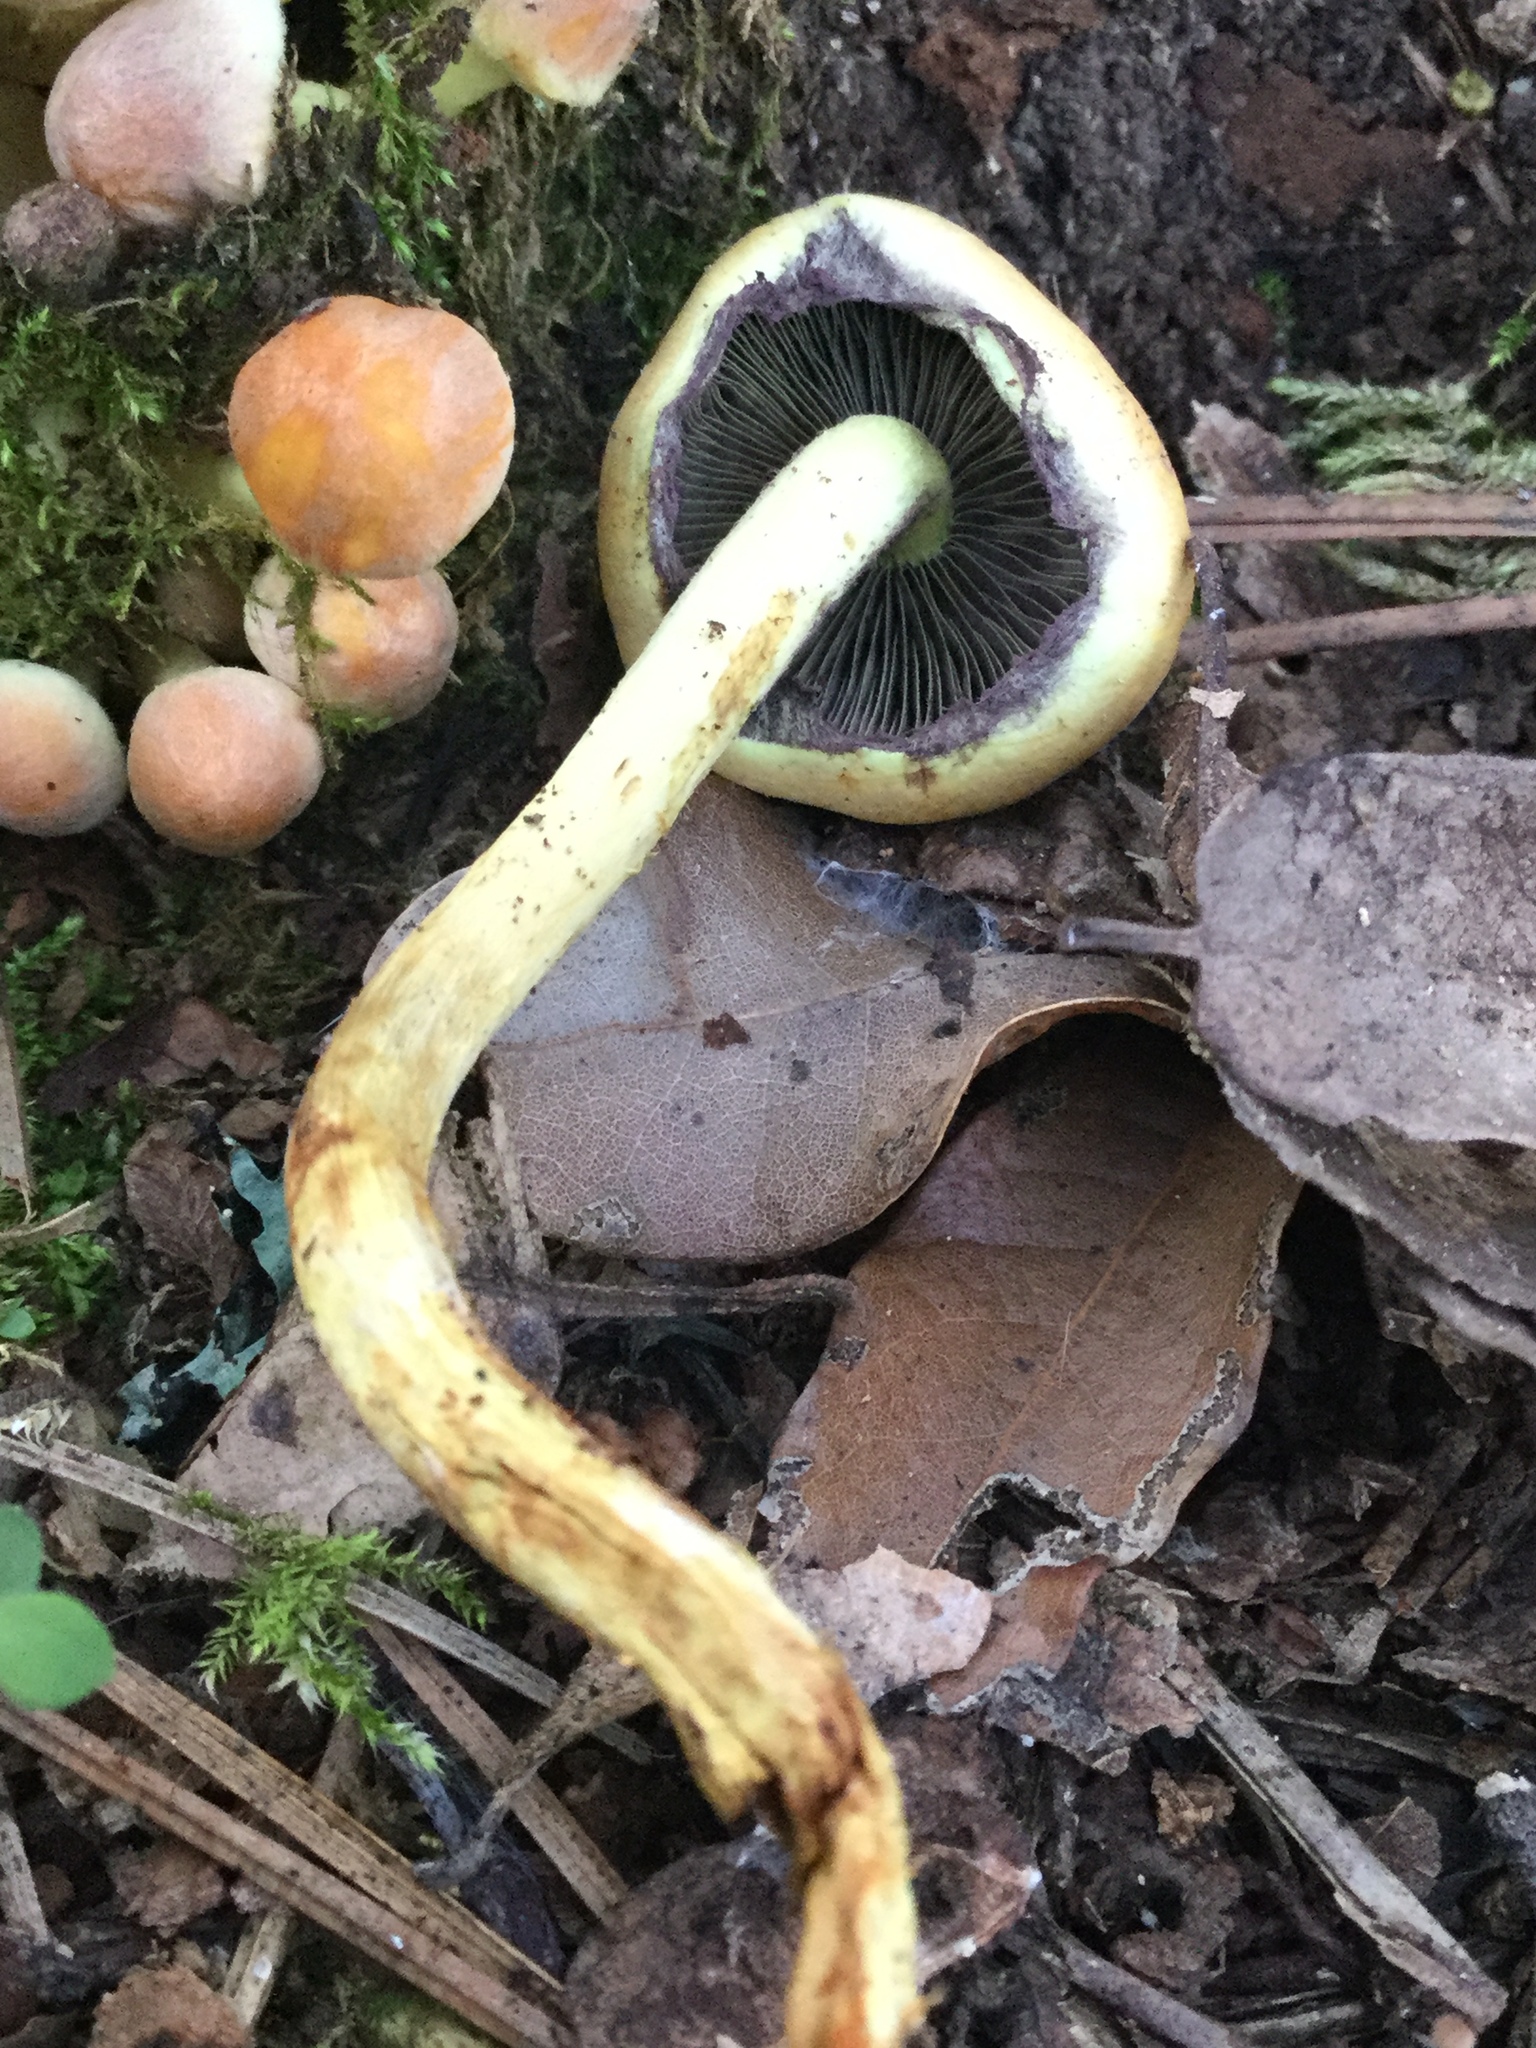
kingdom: Fungi
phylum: Basidiomycota
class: Agaricomycetes
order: Agaricales
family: Strophariaceae
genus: Hypholoma
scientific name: Hypholoma fasciculare
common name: Sulphur tuft
